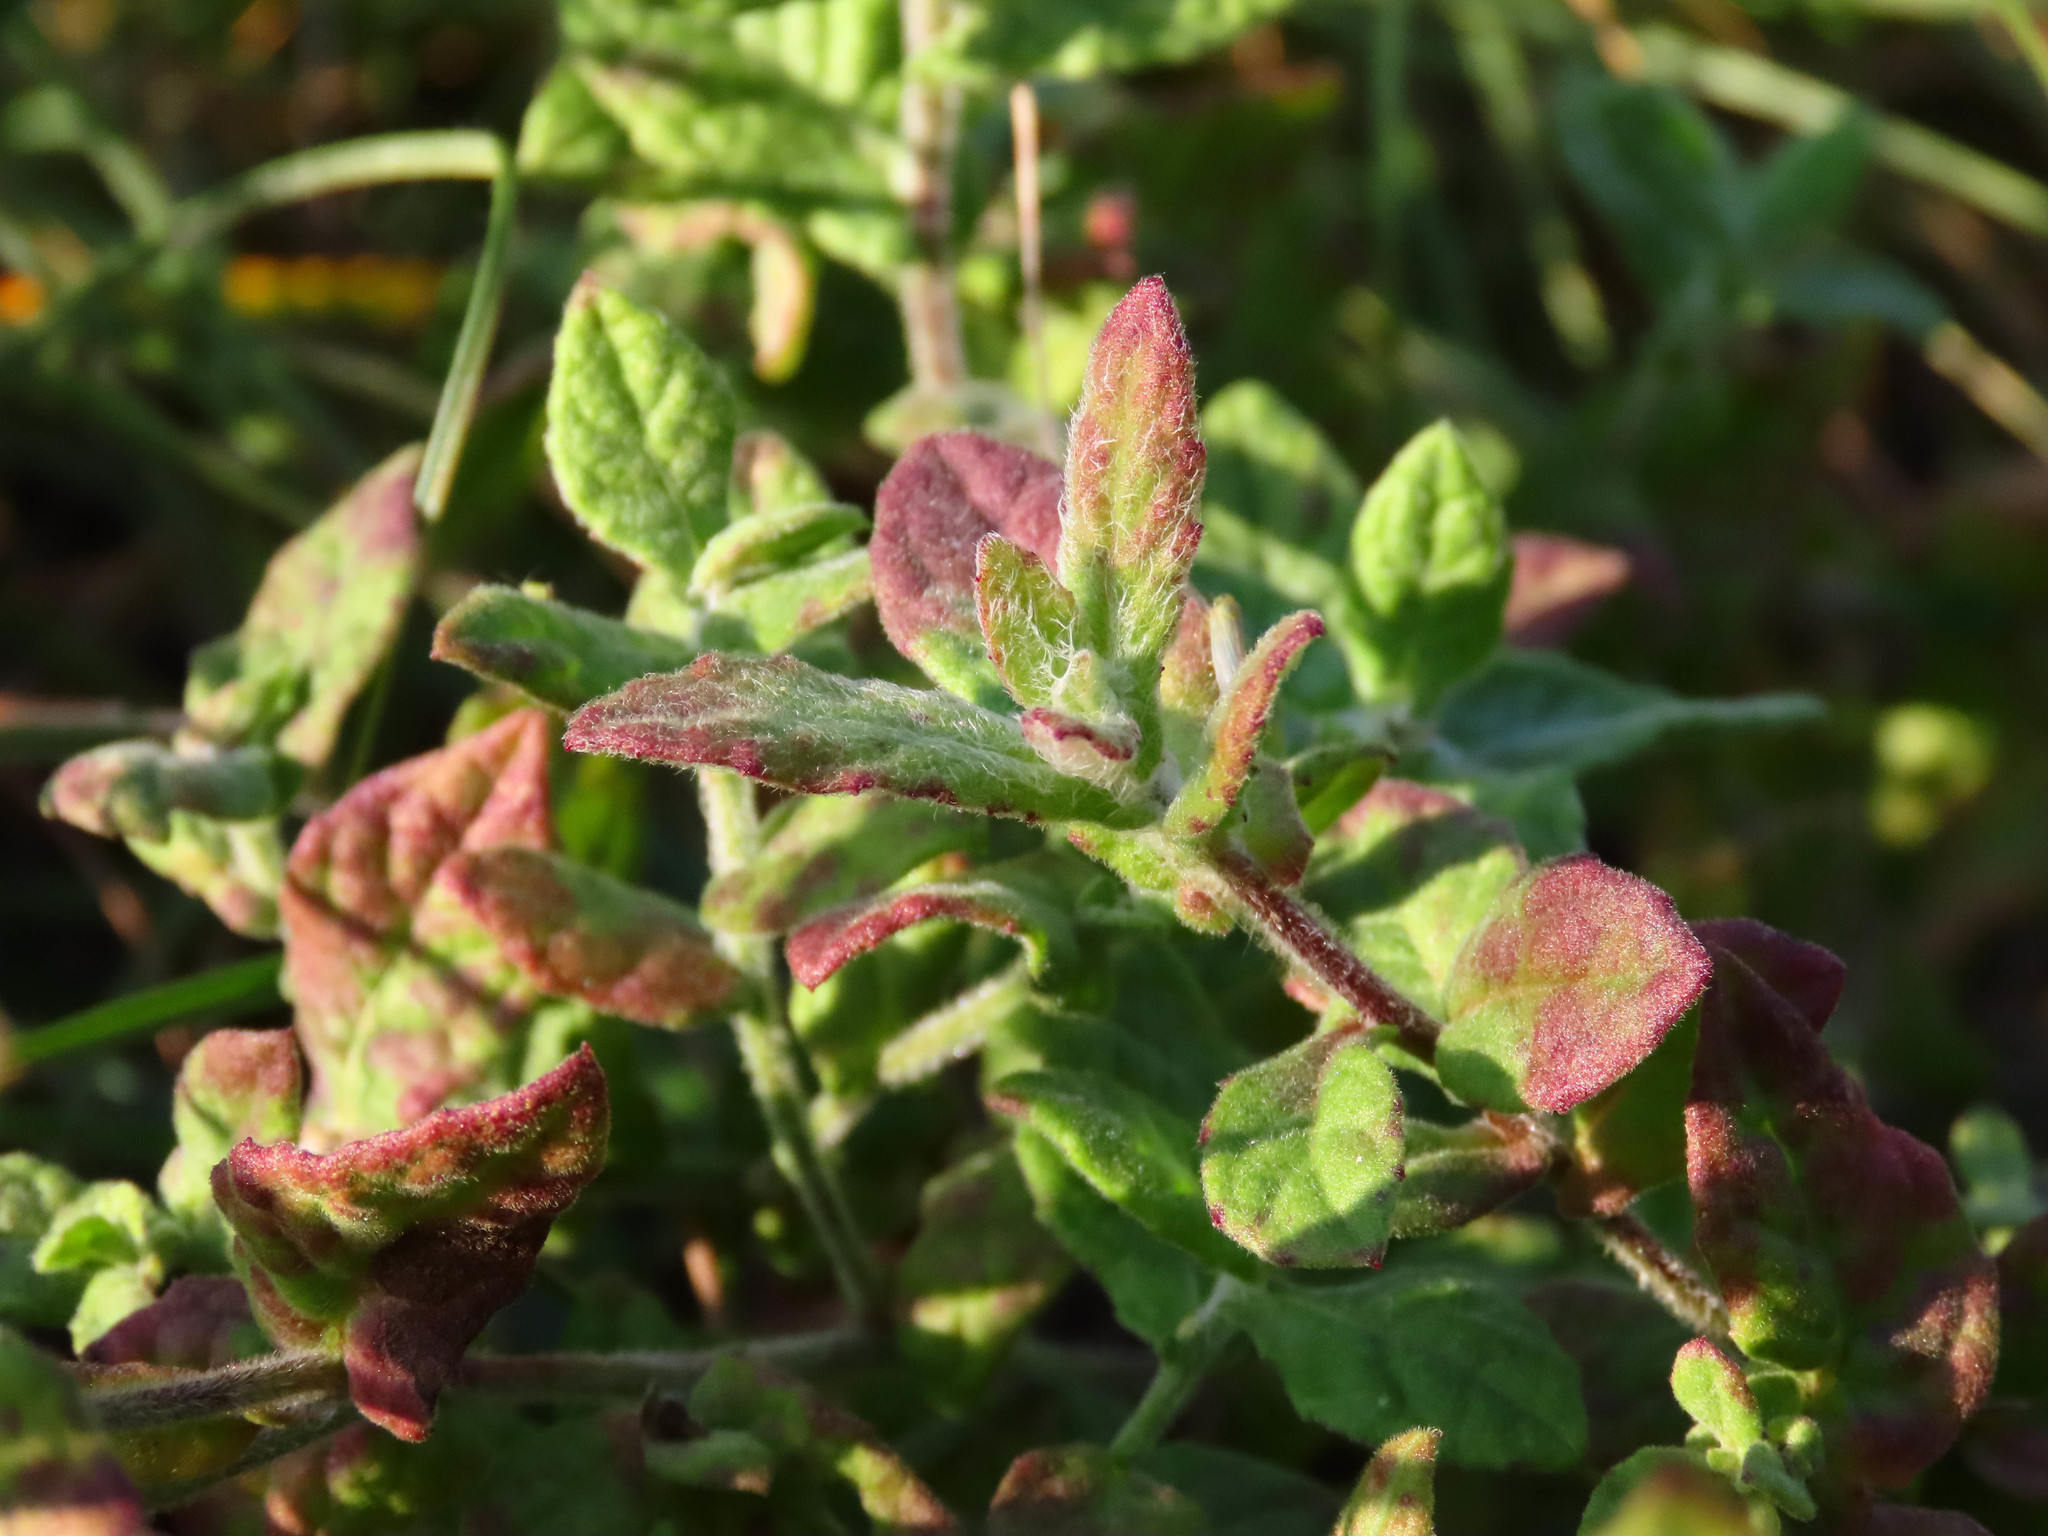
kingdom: Plantae
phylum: Tracheophyta
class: Magnoliopsida
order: Asterales
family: Asteraceae
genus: Pulicaria
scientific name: Pulicaria dysenterica
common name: Common fleabane
